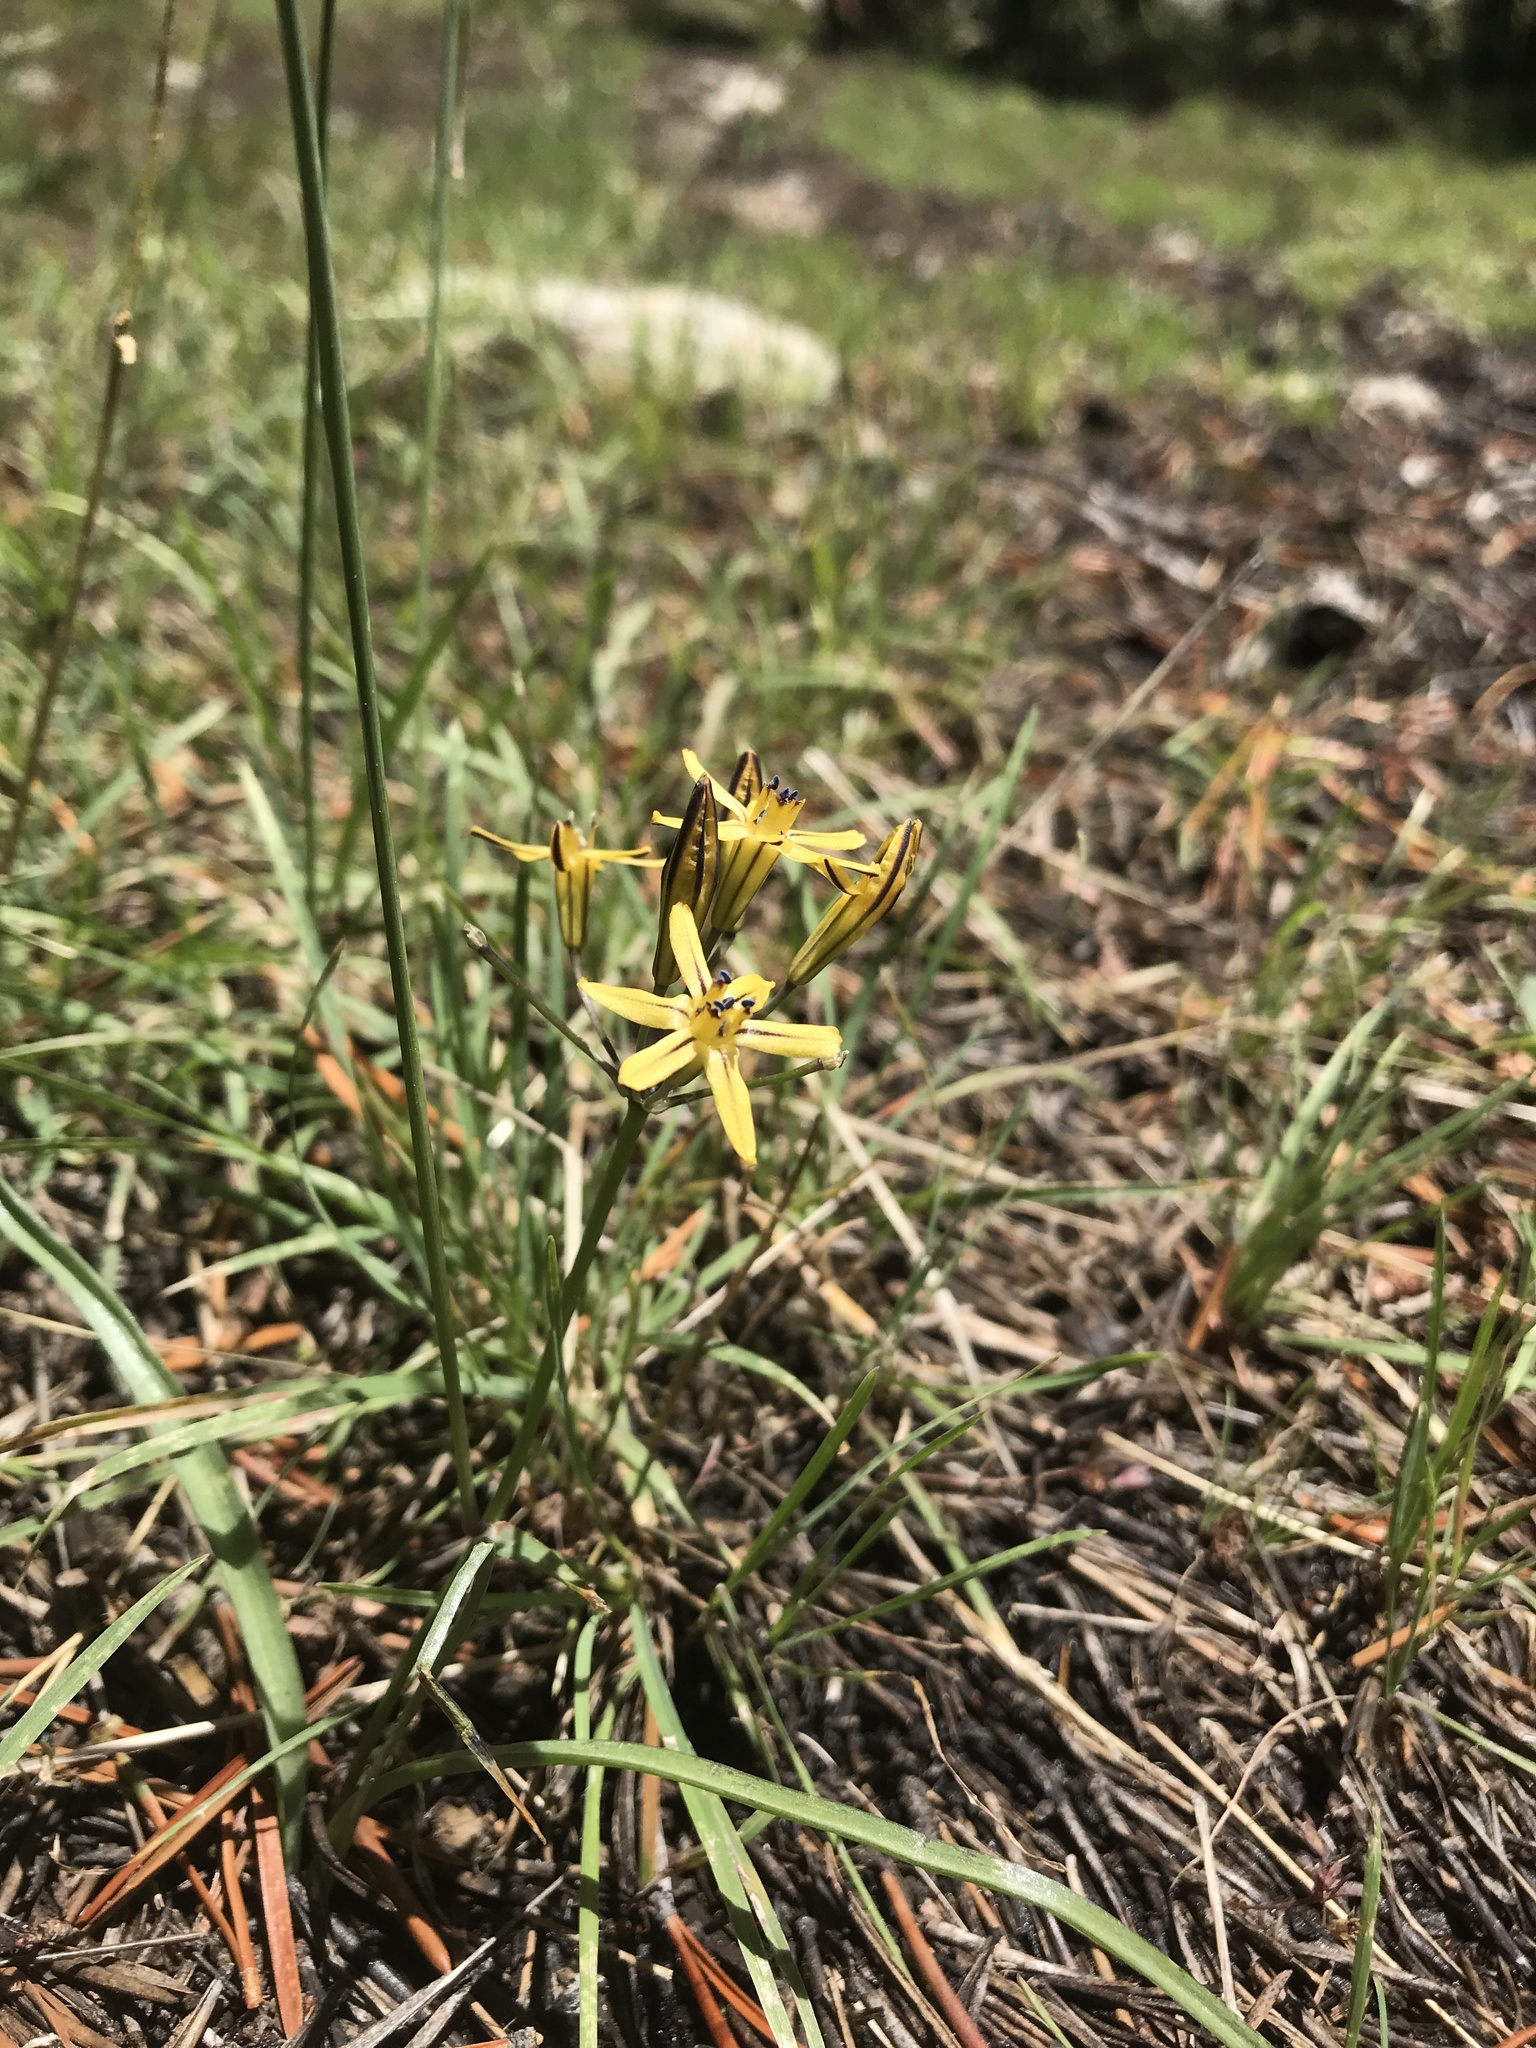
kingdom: Plantae
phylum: Tracheophyta
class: Liliopsida
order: Asparagales
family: Asparagaceae
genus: Triteleia
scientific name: Triteleia ixioides
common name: Yellow-brodiaea
